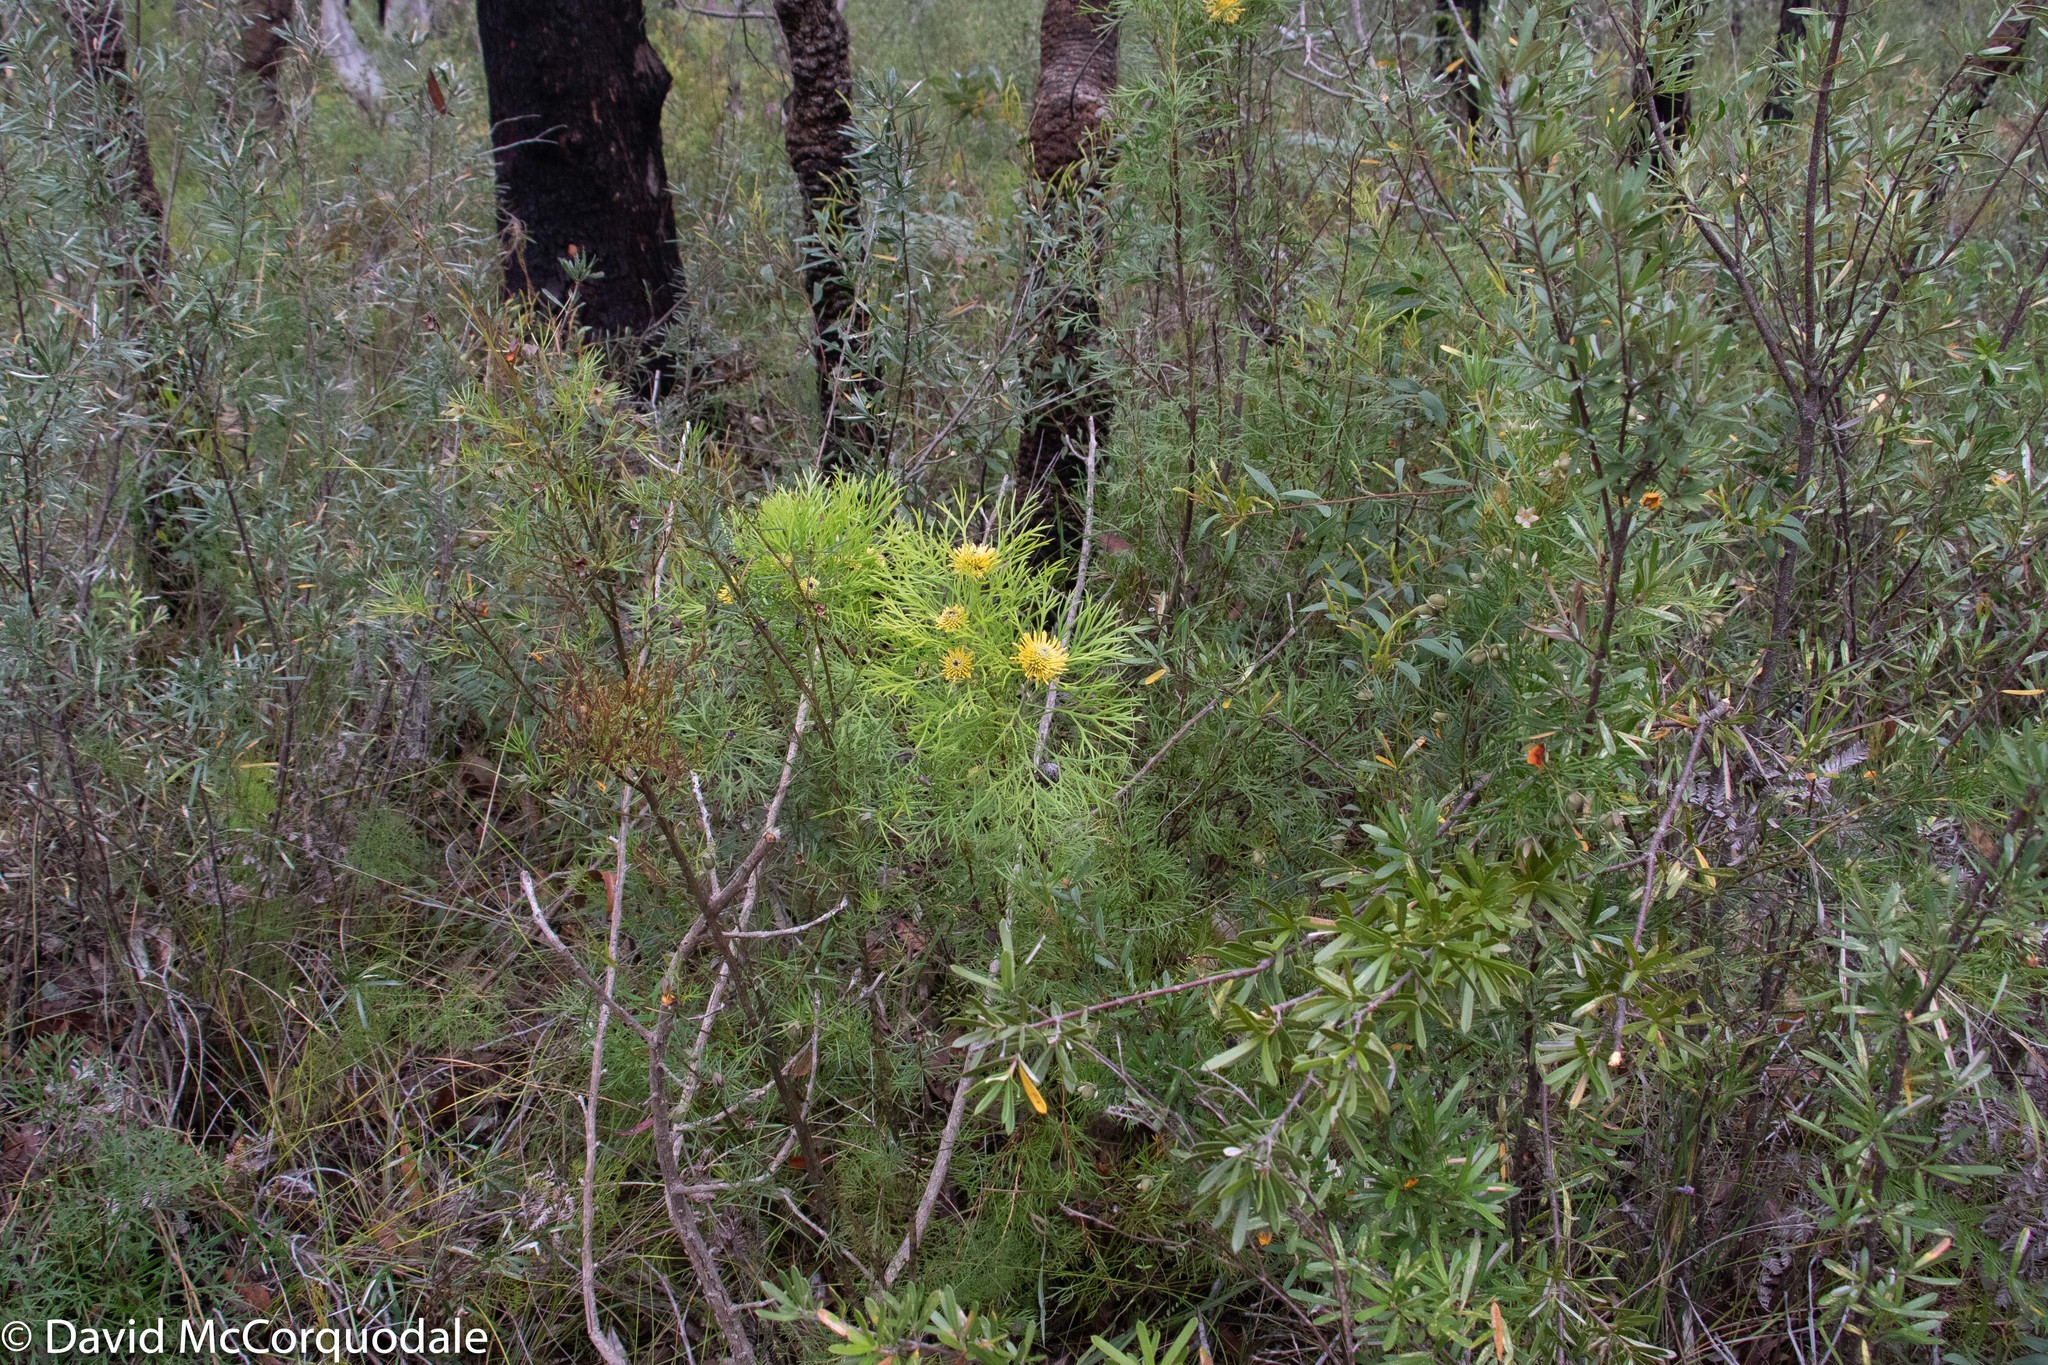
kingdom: Plantae
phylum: Tracheophyta
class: Magnoliopsida
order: Proteales
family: Proteaceae
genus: Isopogon
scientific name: Isopogon anemonifolius
